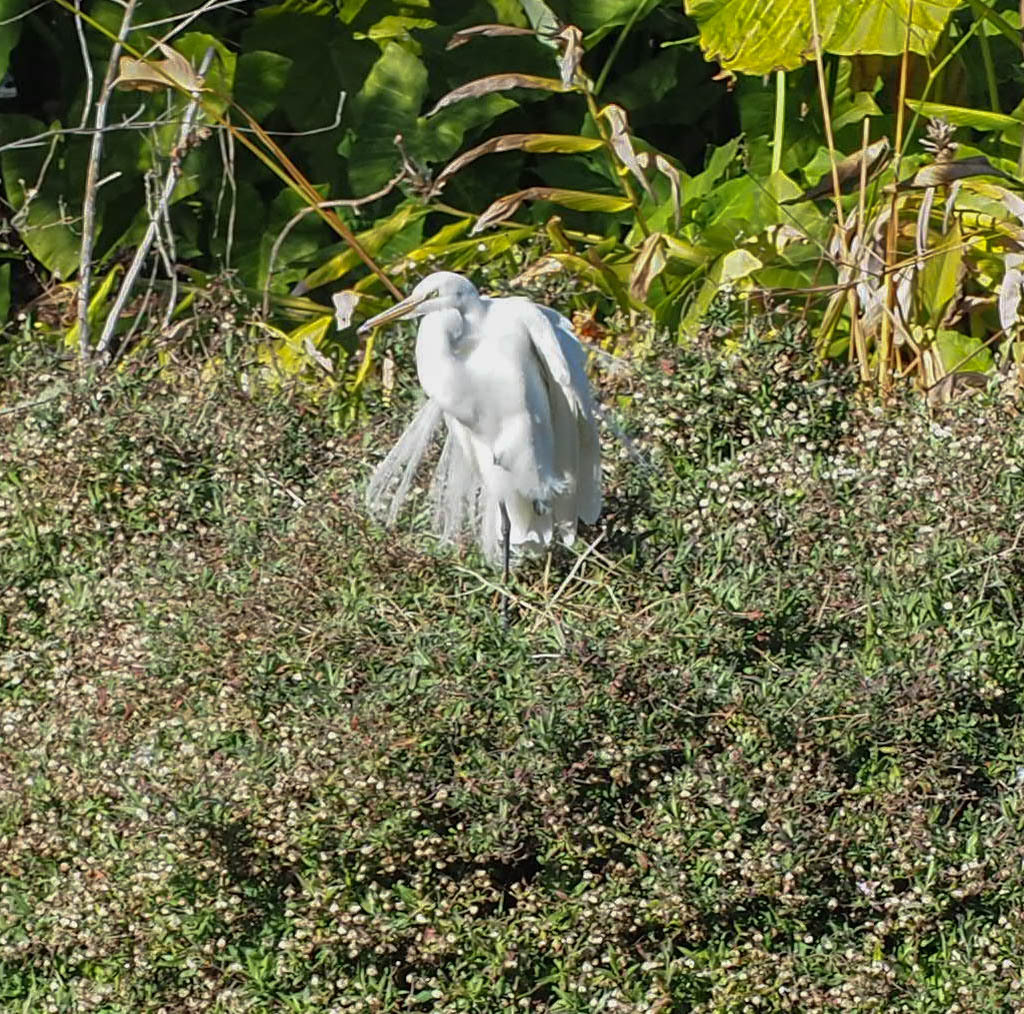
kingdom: Animalia
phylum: Chordata
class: Aves
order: Pelecaniformes
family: Ardeidae
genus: Ardea
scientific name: Ardea alba
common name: Great egret
